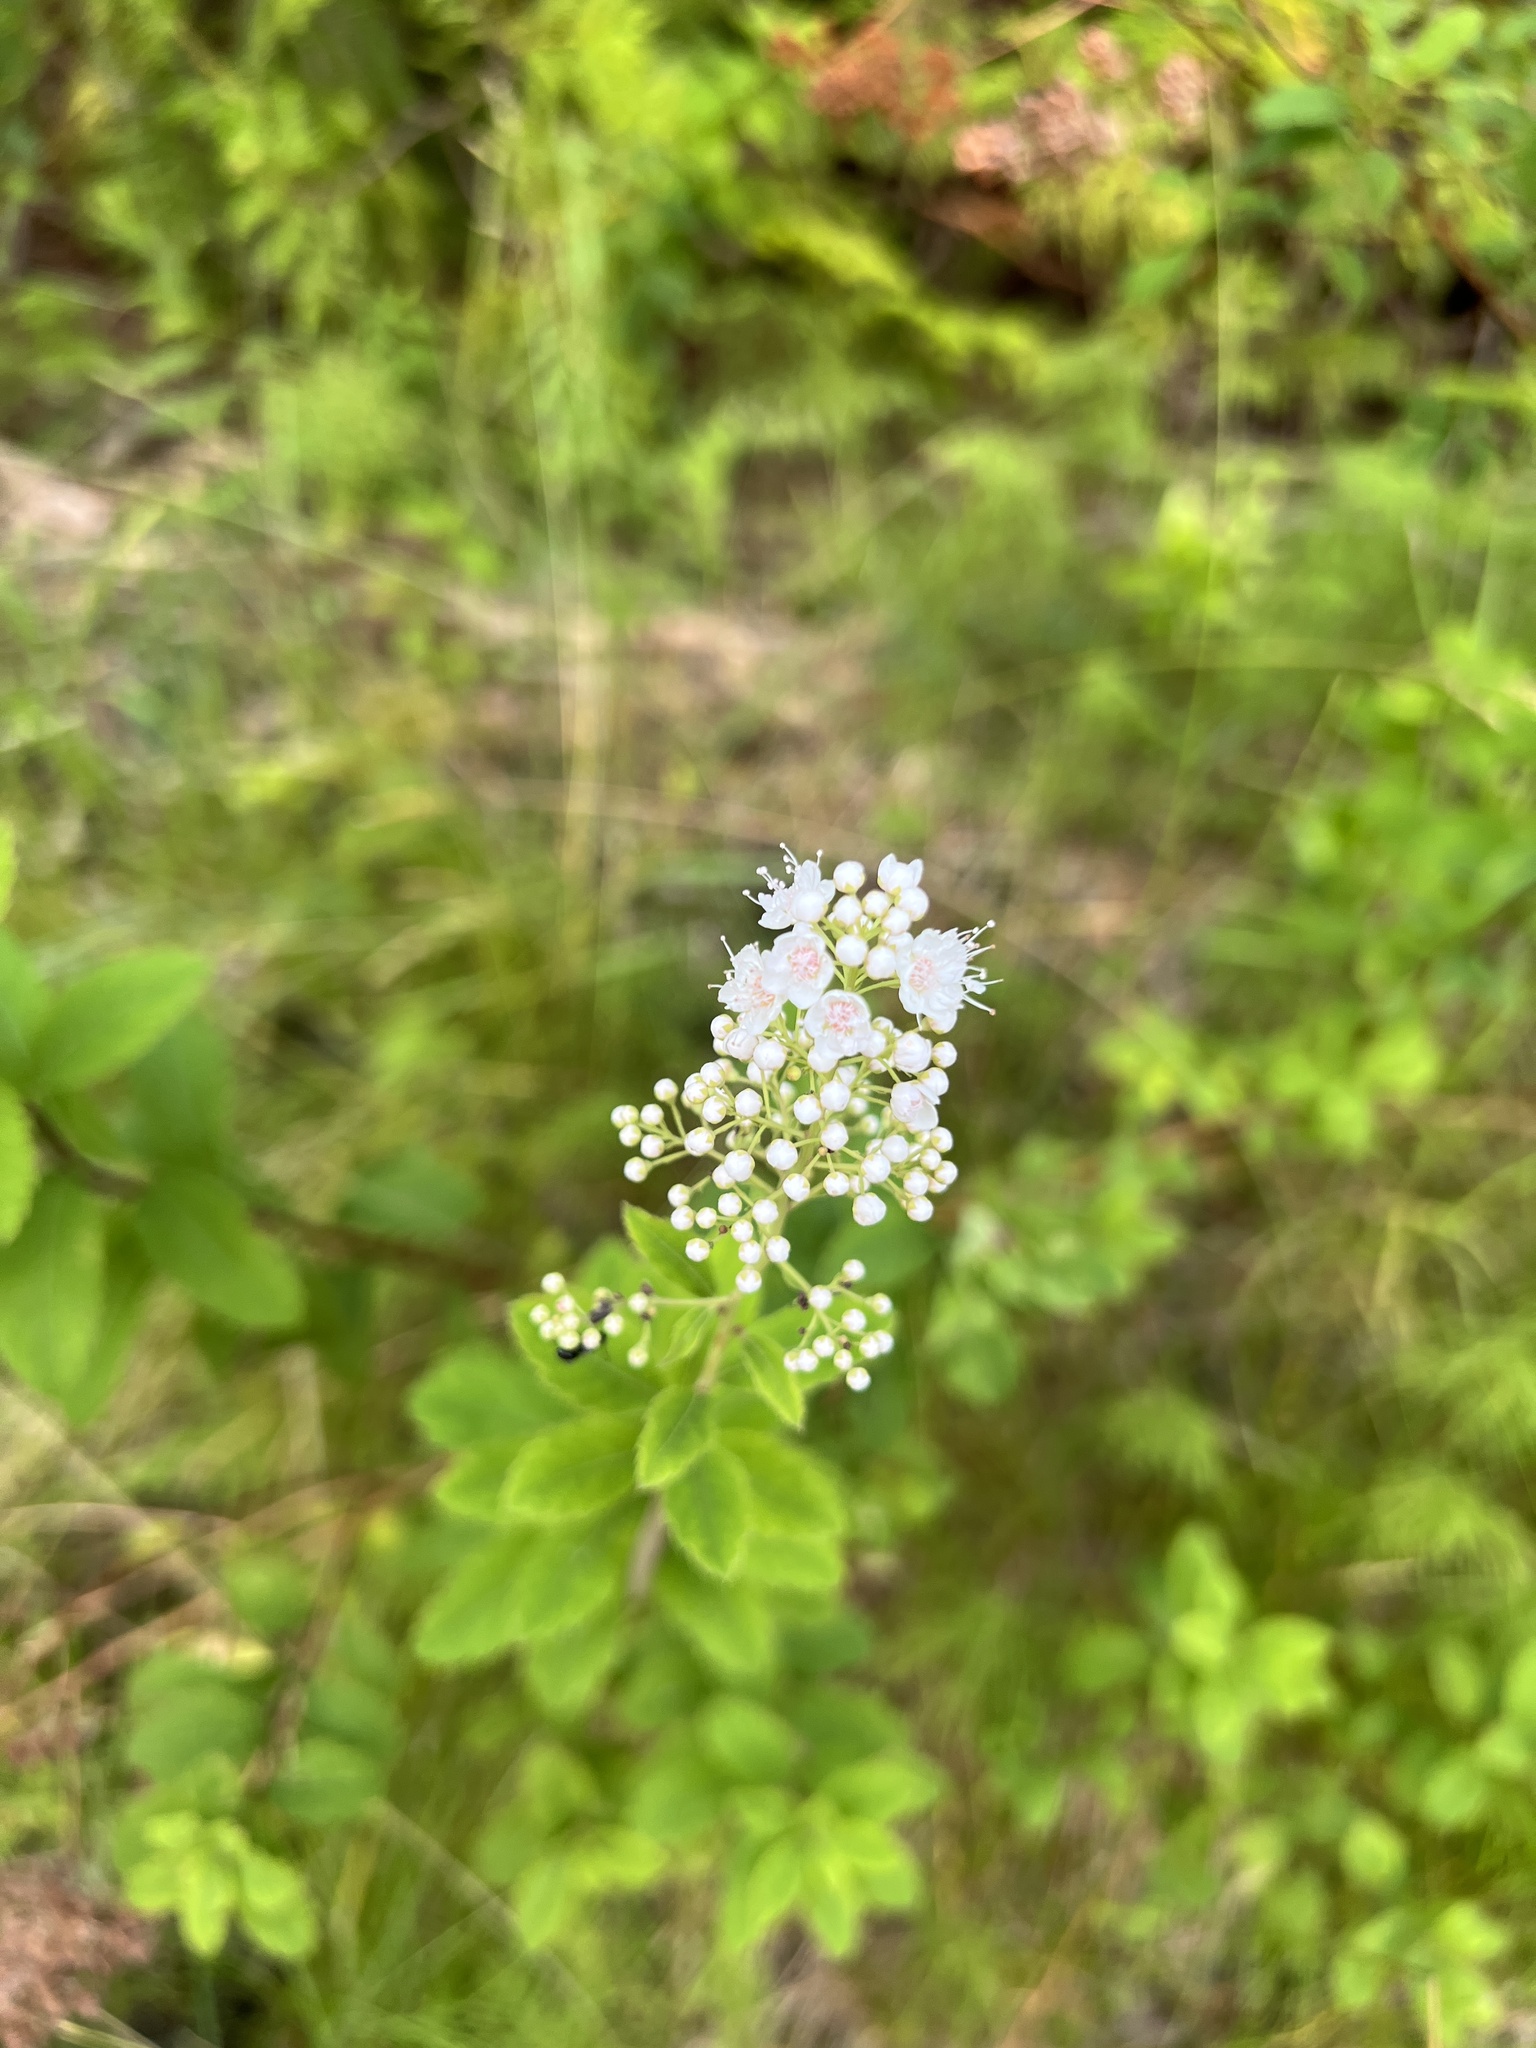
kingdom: Plantae
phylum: Tracheophyta
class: Magnoliopsida
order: Rosales
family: Rosaceae
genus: Spiraea
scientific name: Spiraea alba
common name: Pale bridewort
